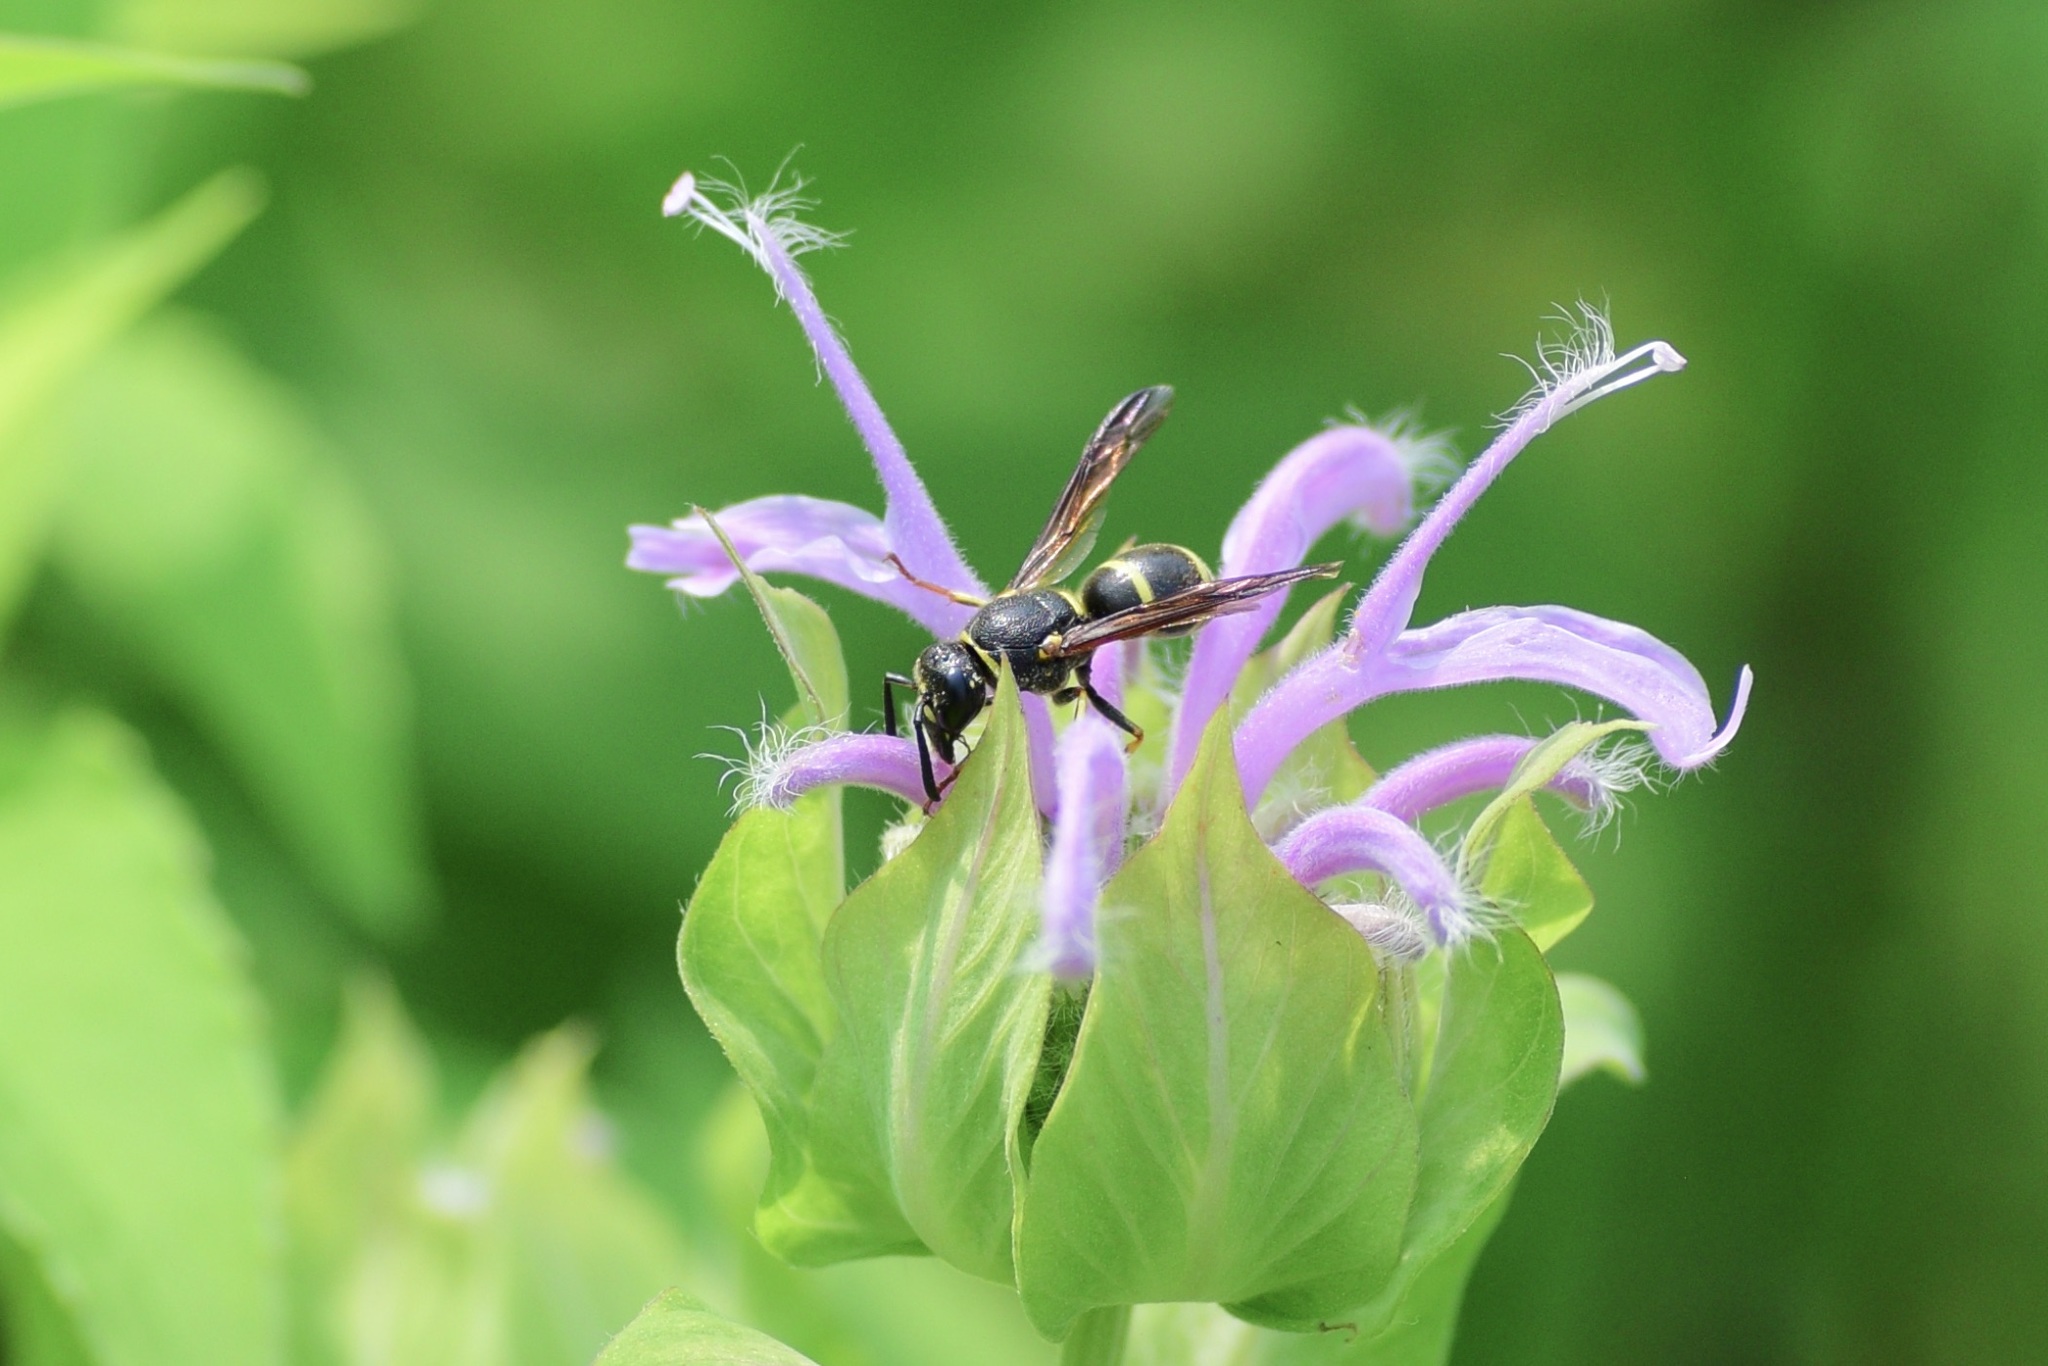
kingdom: Animalia
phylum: Arthropoda
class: Insecta
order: Hymenoptera
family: Eumenidae
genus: Euodynerus
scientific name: Euodynerus foraminatus
